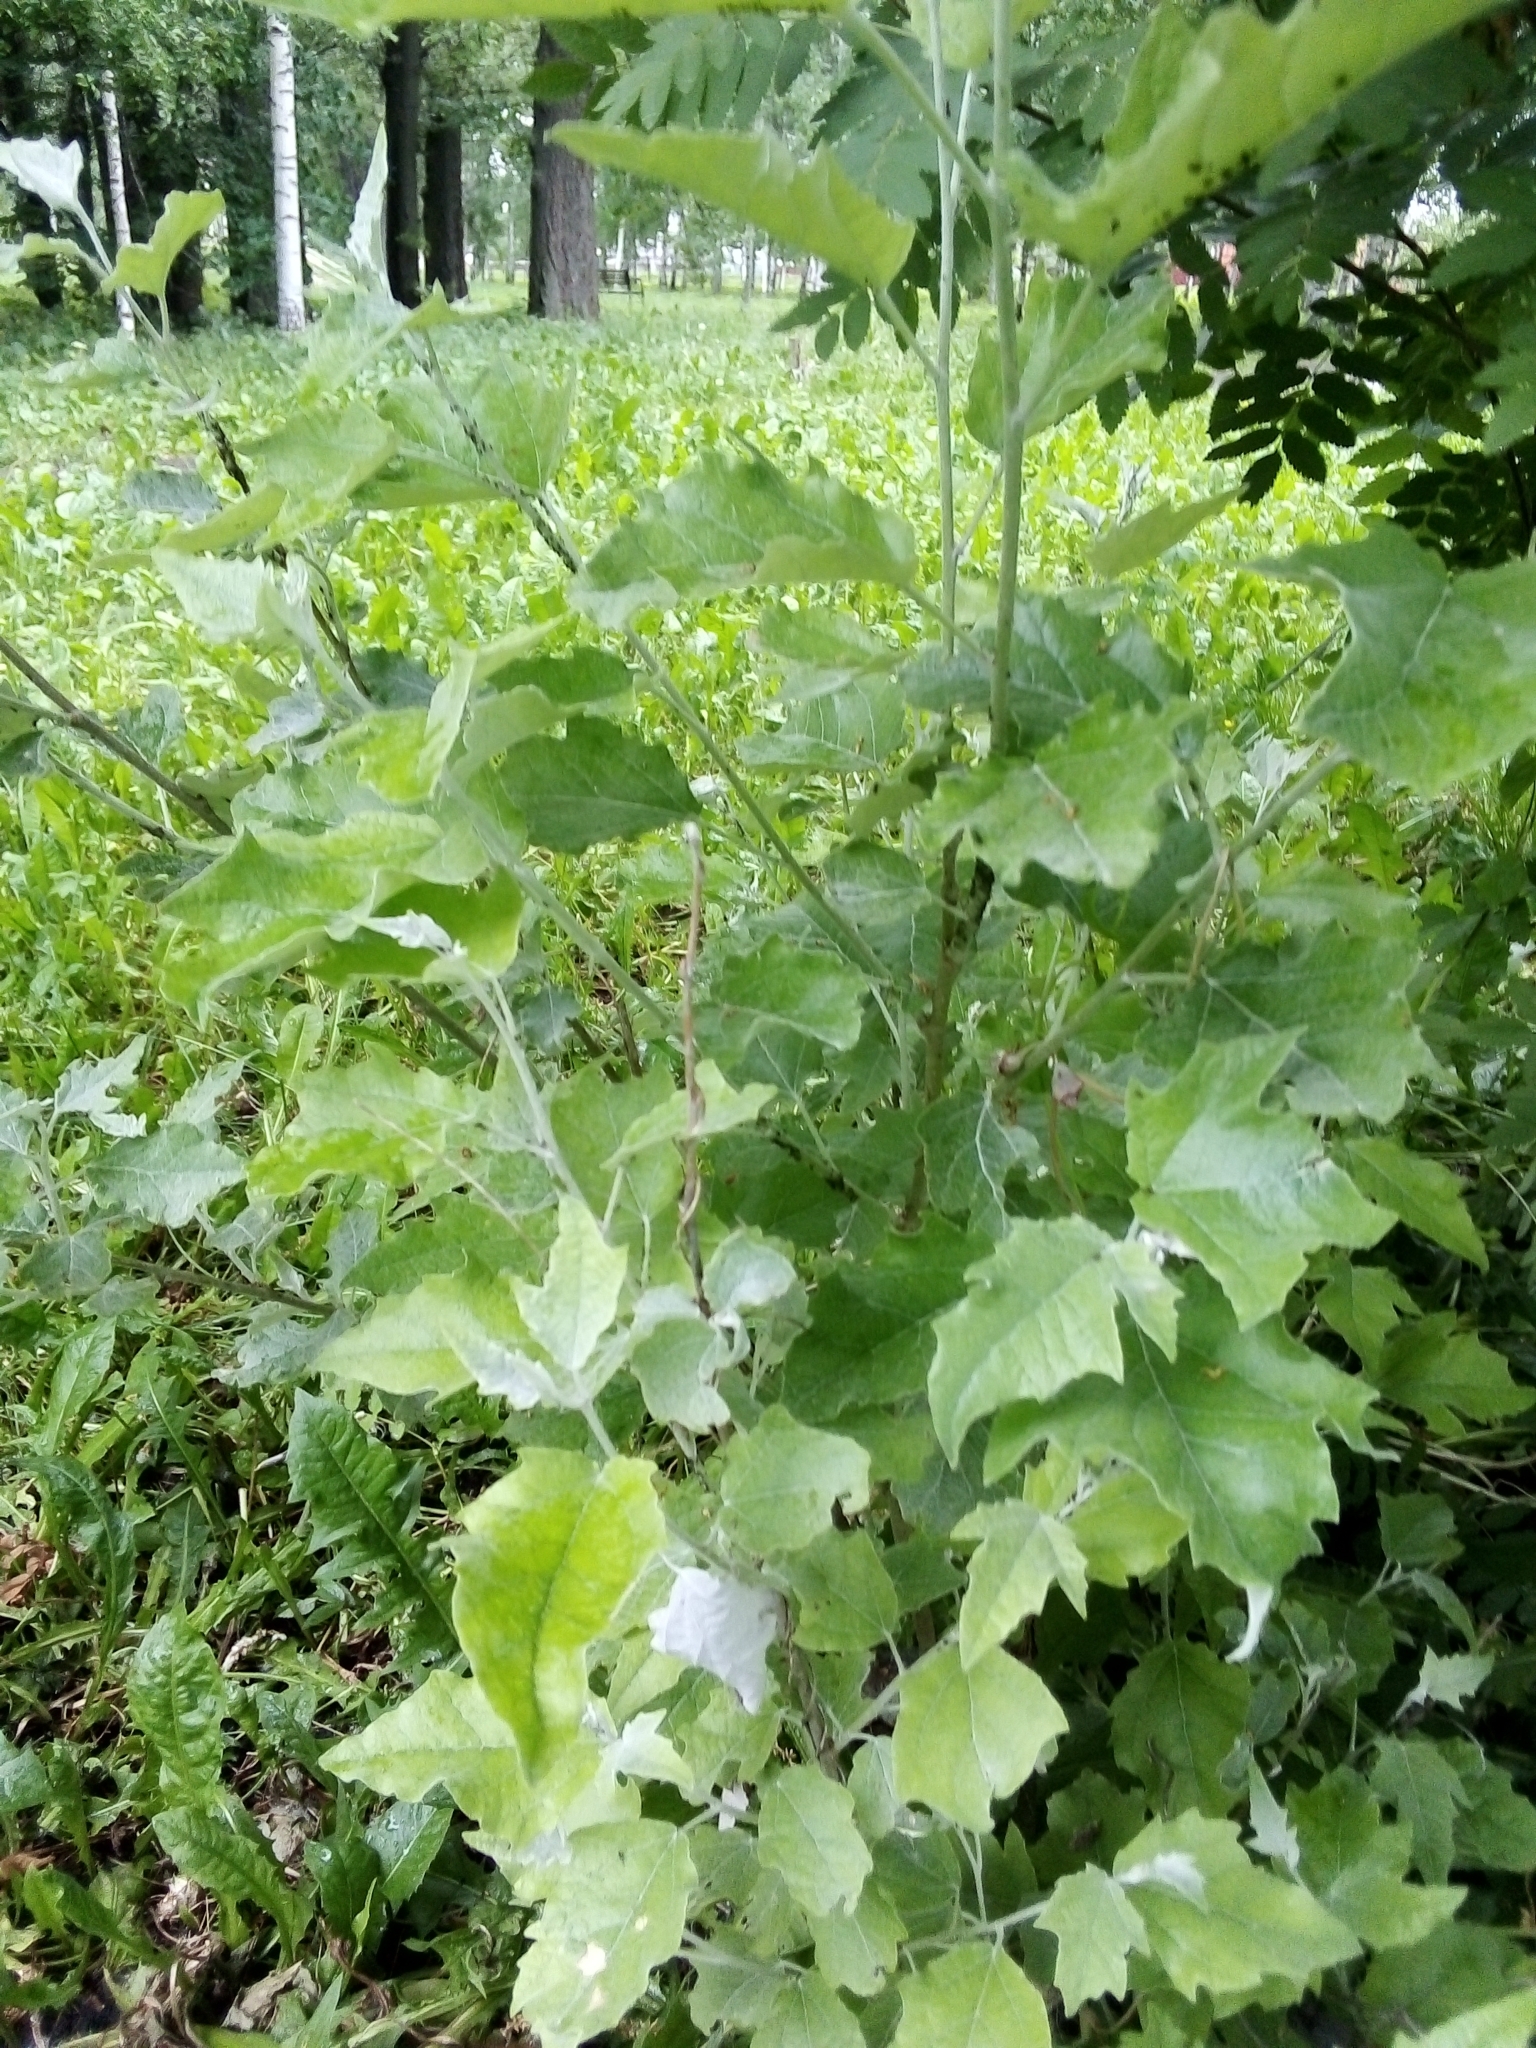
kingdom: Plantae
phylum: Tracheophyta
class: Magnoliopsida
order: Malpighiales
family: Salicaceae
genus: Populus
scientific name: Populus alba
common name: White poplar
